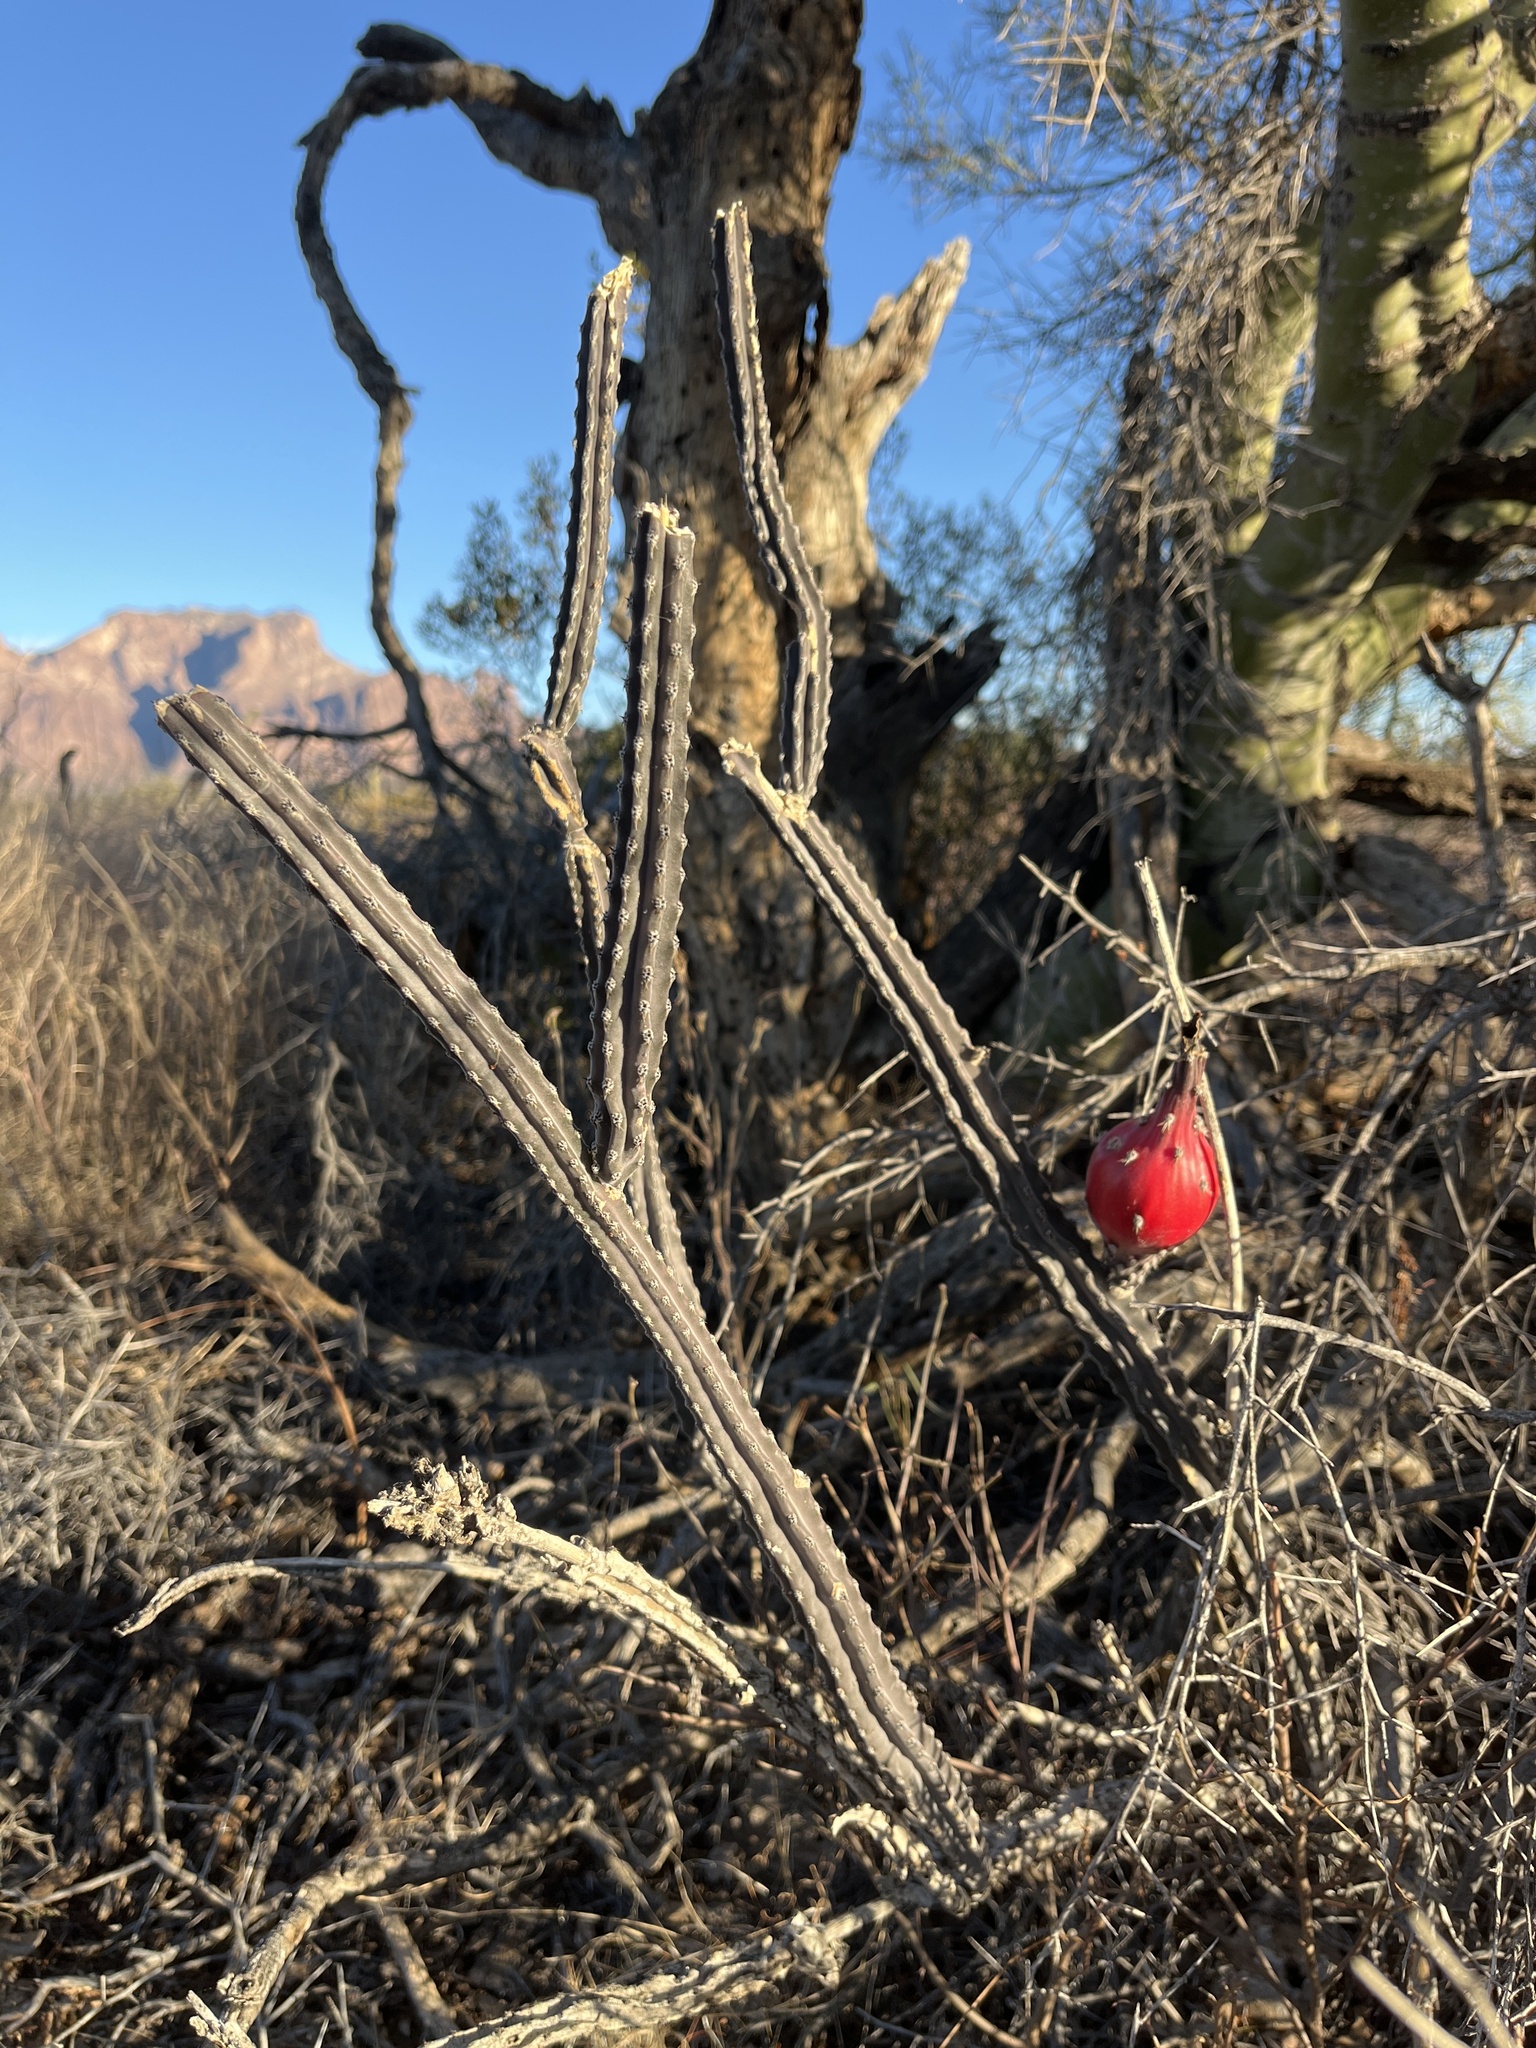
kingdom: Plantae
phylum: Tracheophyta
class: Magnoliopsida
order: Caryophyllales
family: Cactaceae
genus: Peniocereus
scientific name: Peniocereus greggii
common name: Desert night-blooming cereus
